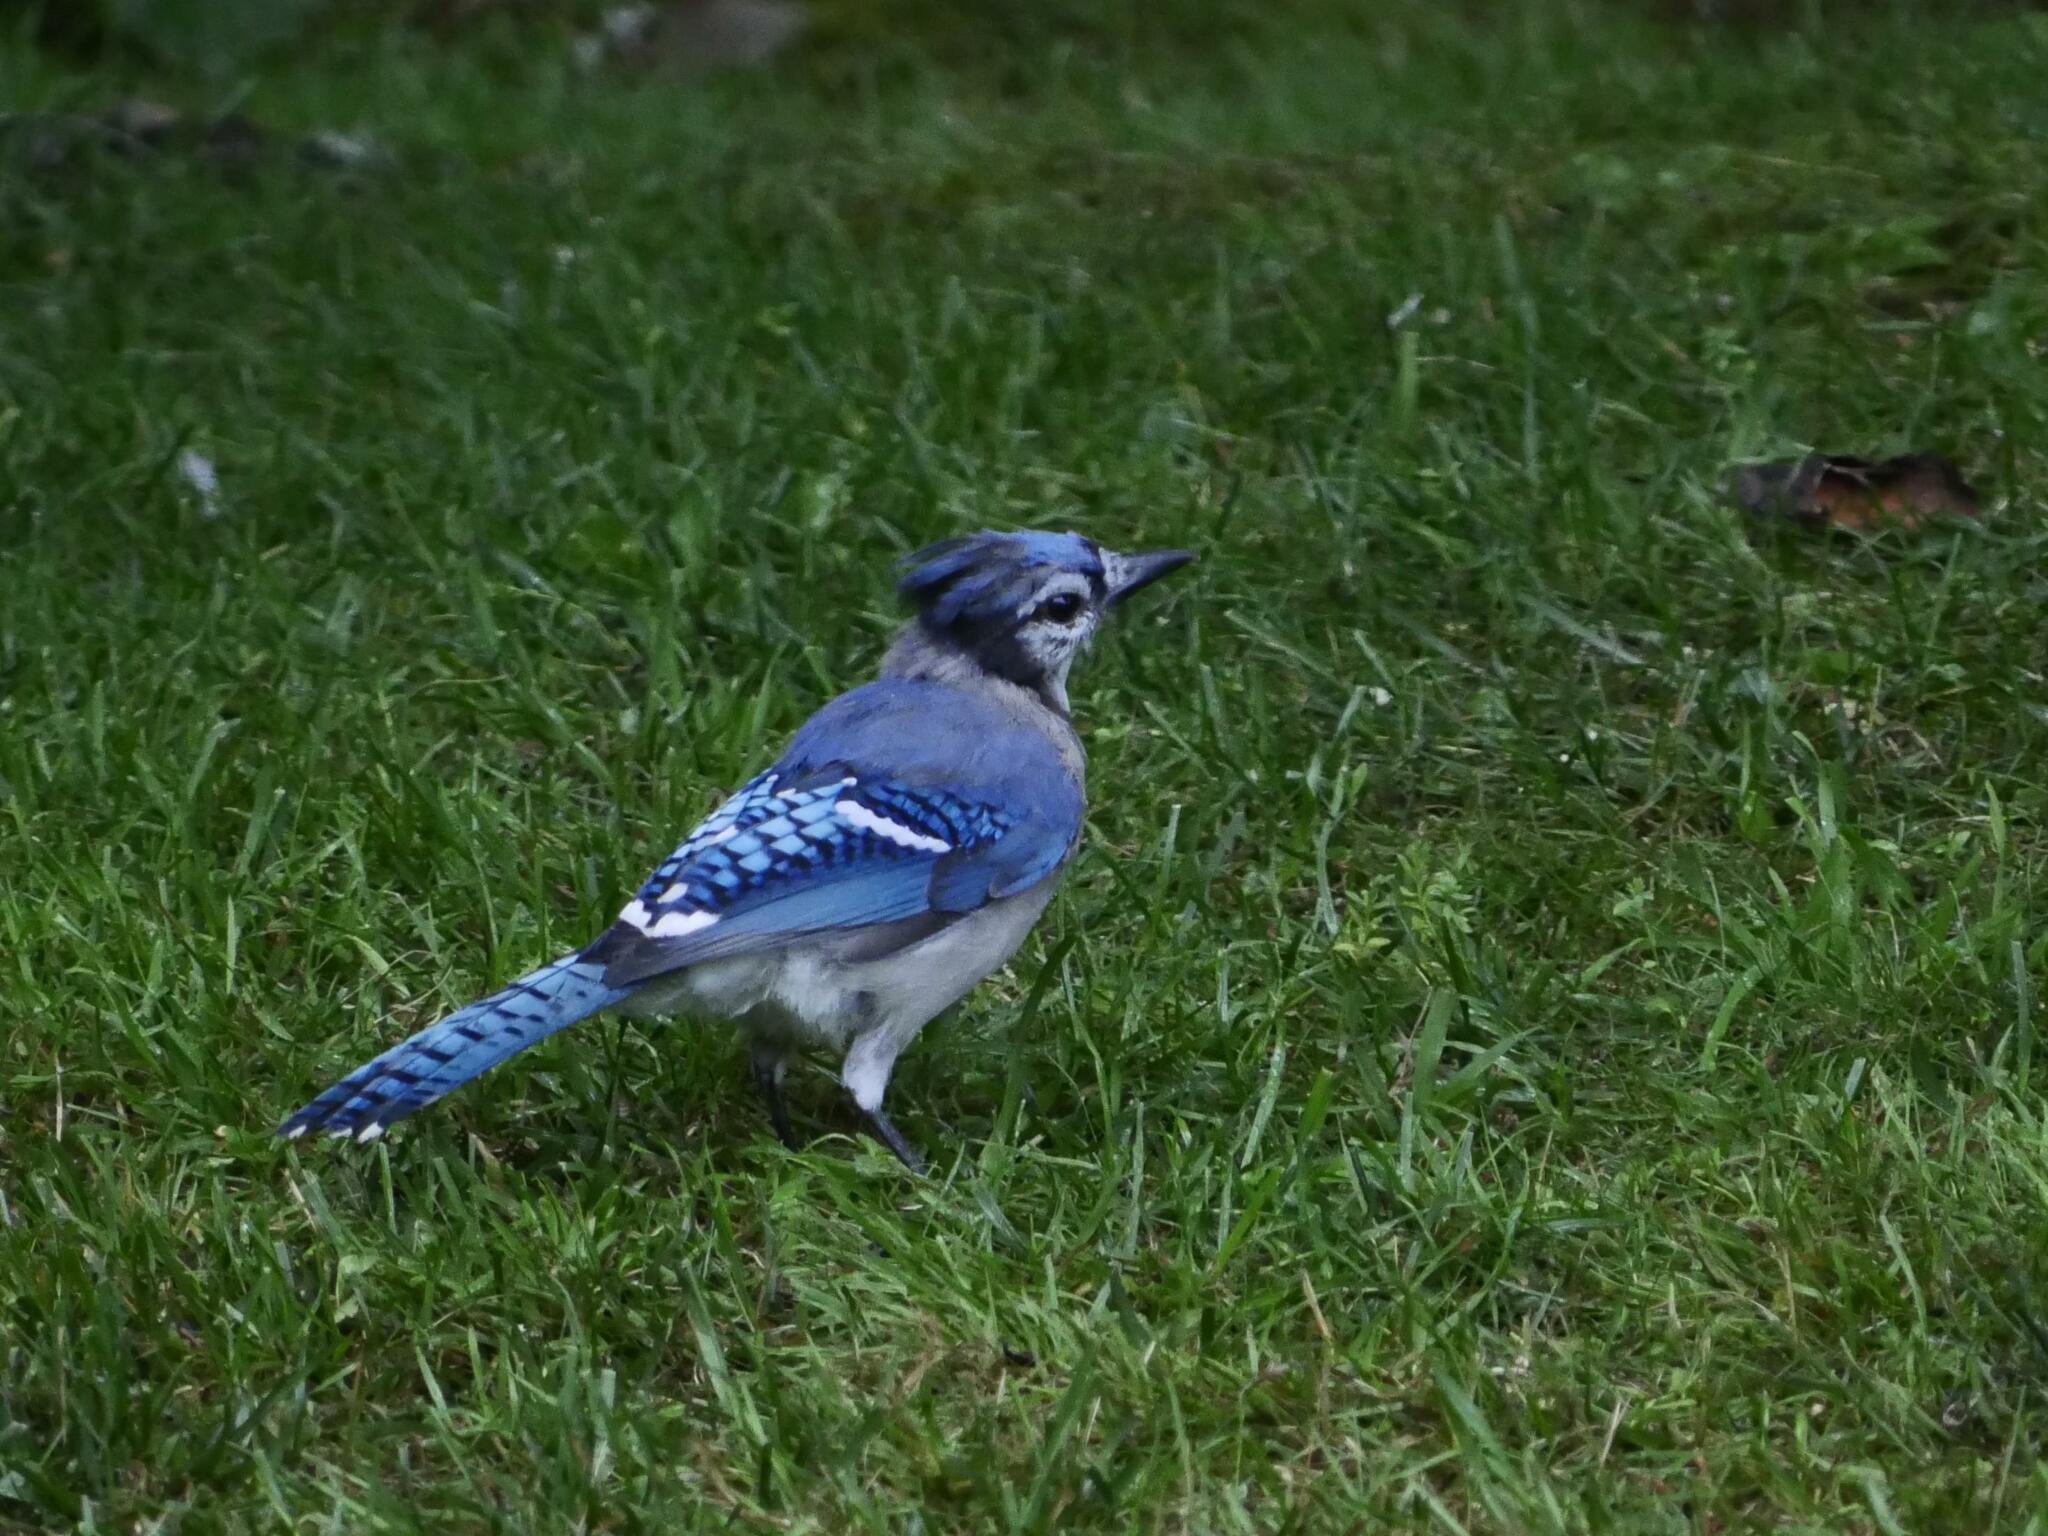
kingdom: Animalia
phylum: Chordata
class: Aves
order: Passeriformes
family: Corvidae
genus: Cyanocitta
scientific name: Cyanocitta cristata
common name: Blue jay
